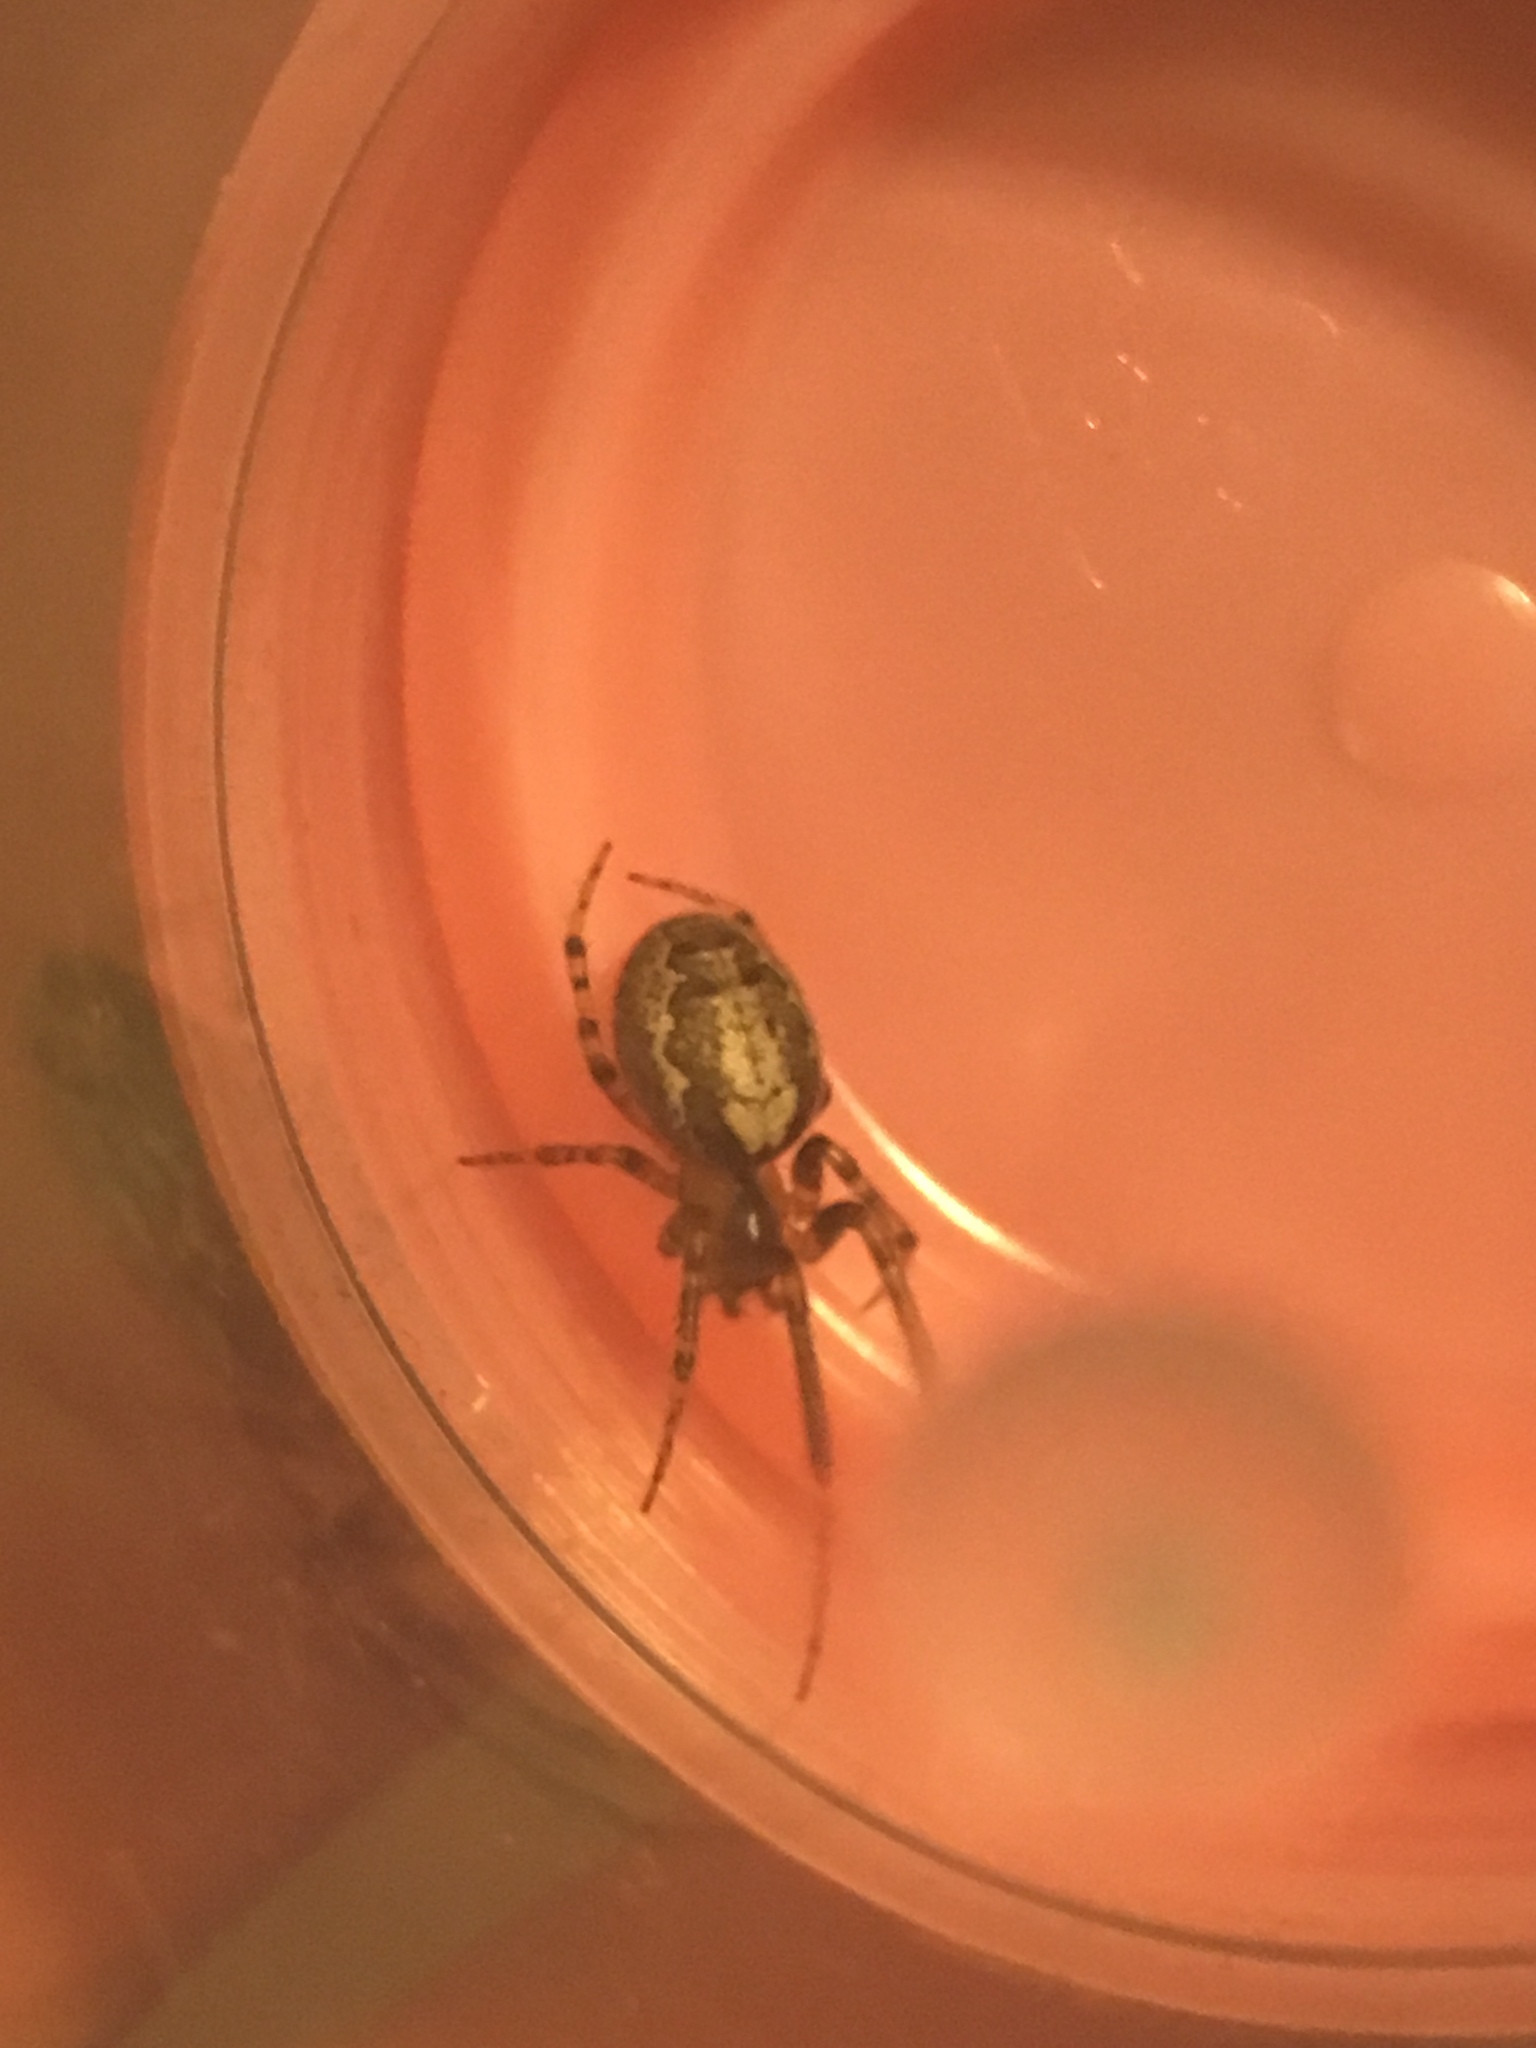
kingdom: Animalia
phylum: Arthropoda
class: Arachnida
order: Araneae
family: Araneidae
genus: Zygiella
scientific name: Zygiella x-notata
